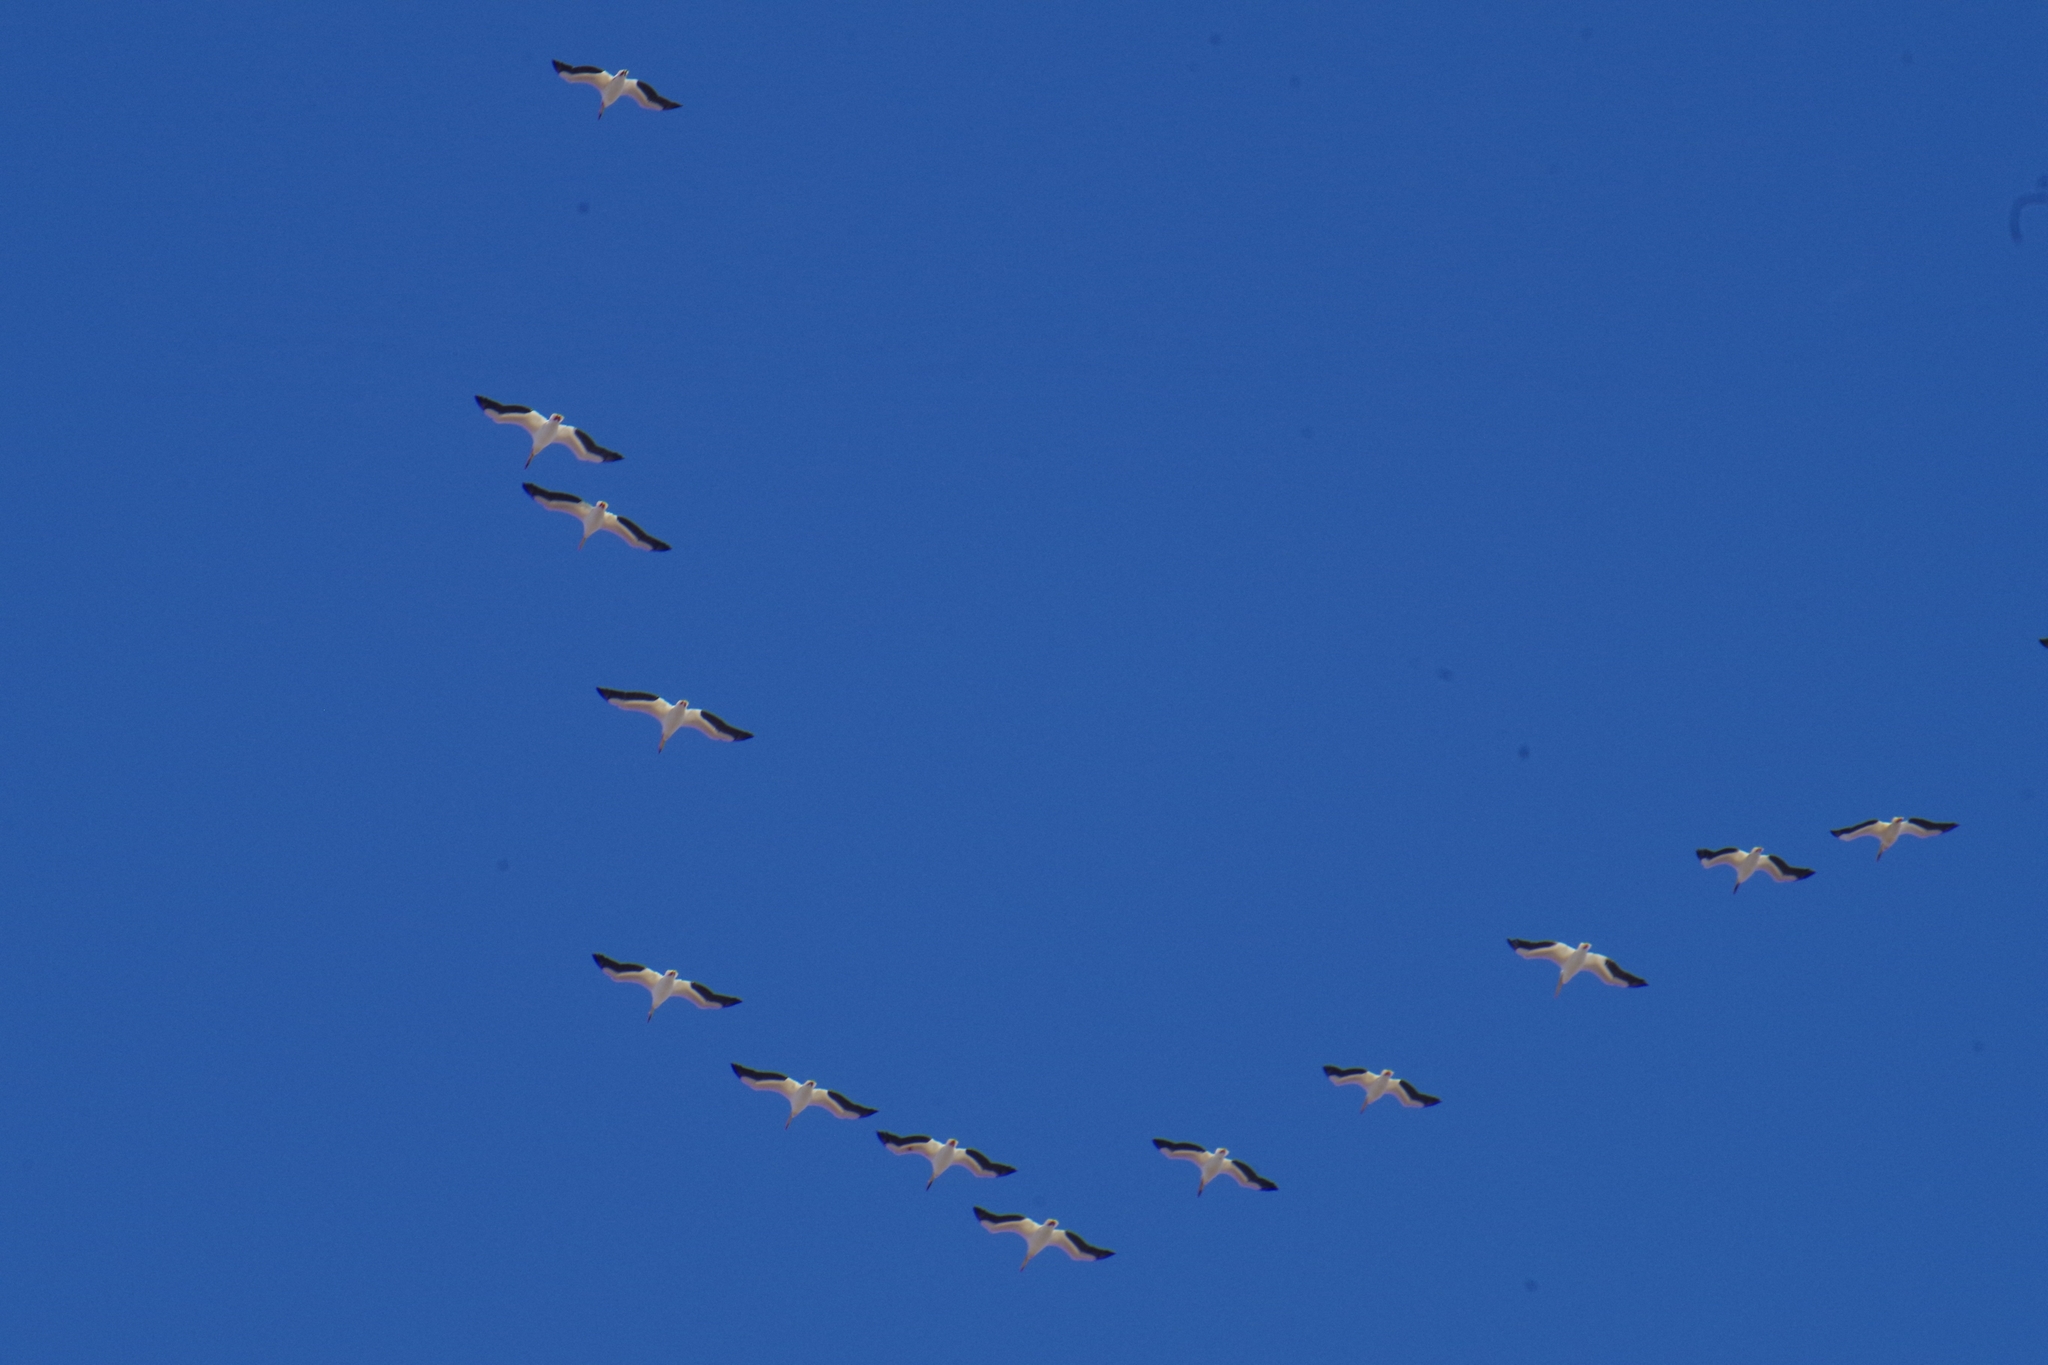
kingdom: Animalia
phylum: Chordata
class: Aves
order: Pelecaniformes
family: Pelecanidae
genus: Pelecanus
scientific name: Pelecanus erythrorhynchos
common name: American white pelican
